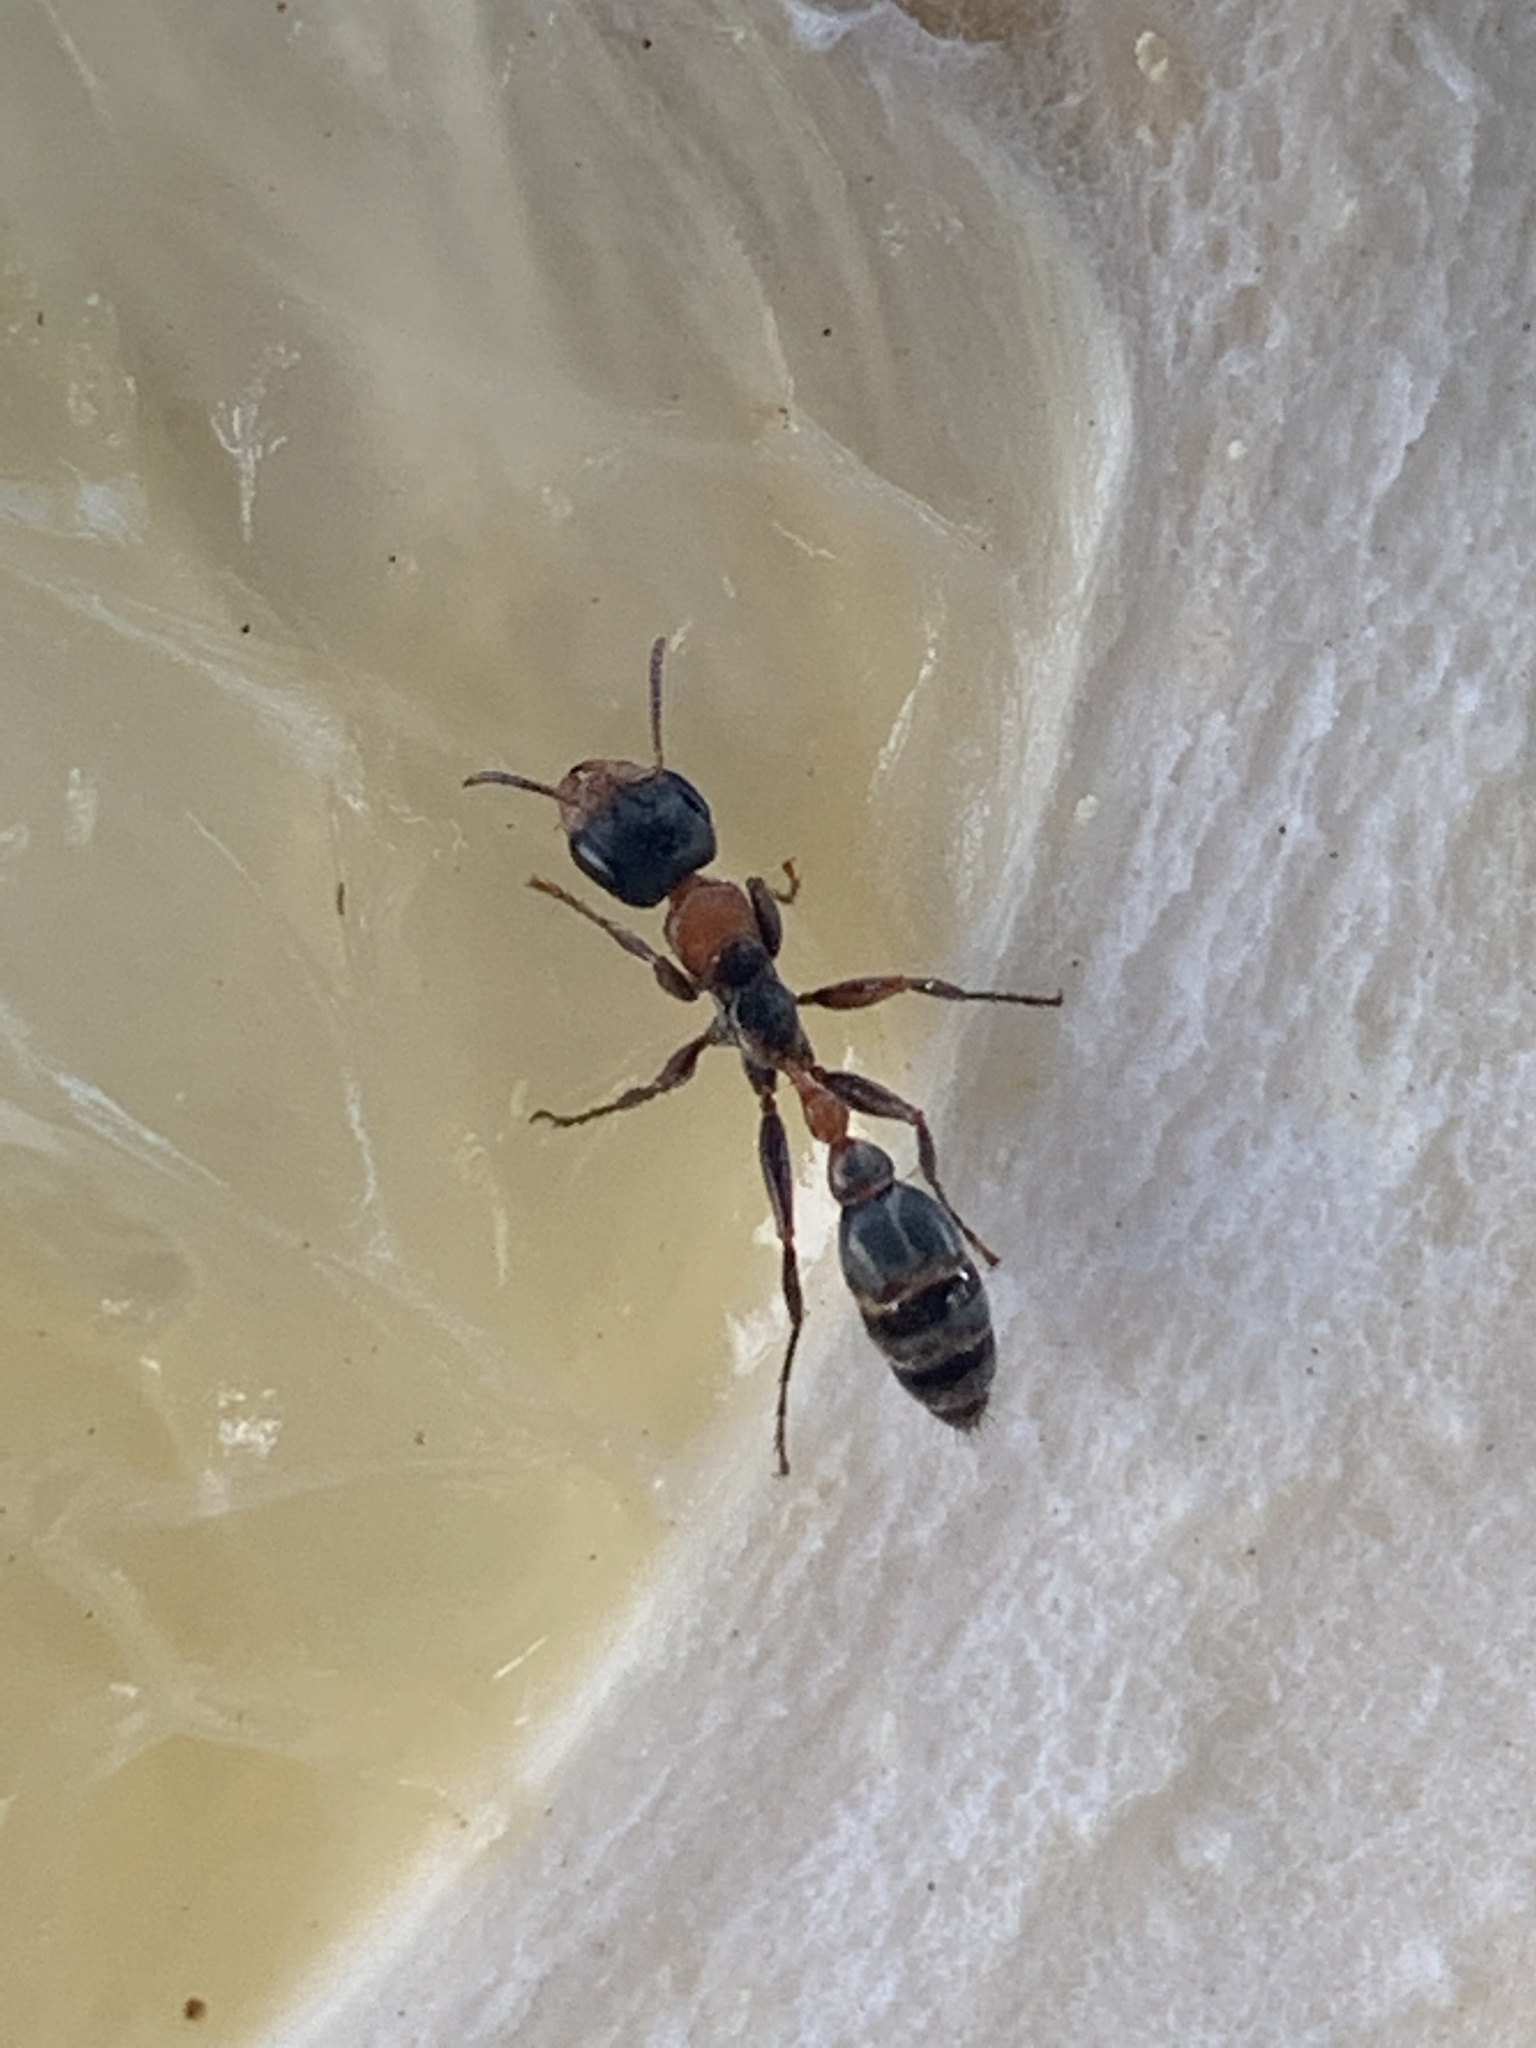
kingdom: Animalia
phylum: Arthropoda
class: Insecta
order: Hymenoptera
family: Formicidae
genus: Pseudomyrmex
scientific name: Pseudomyrmex gracilis
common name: Graceful twig ant
